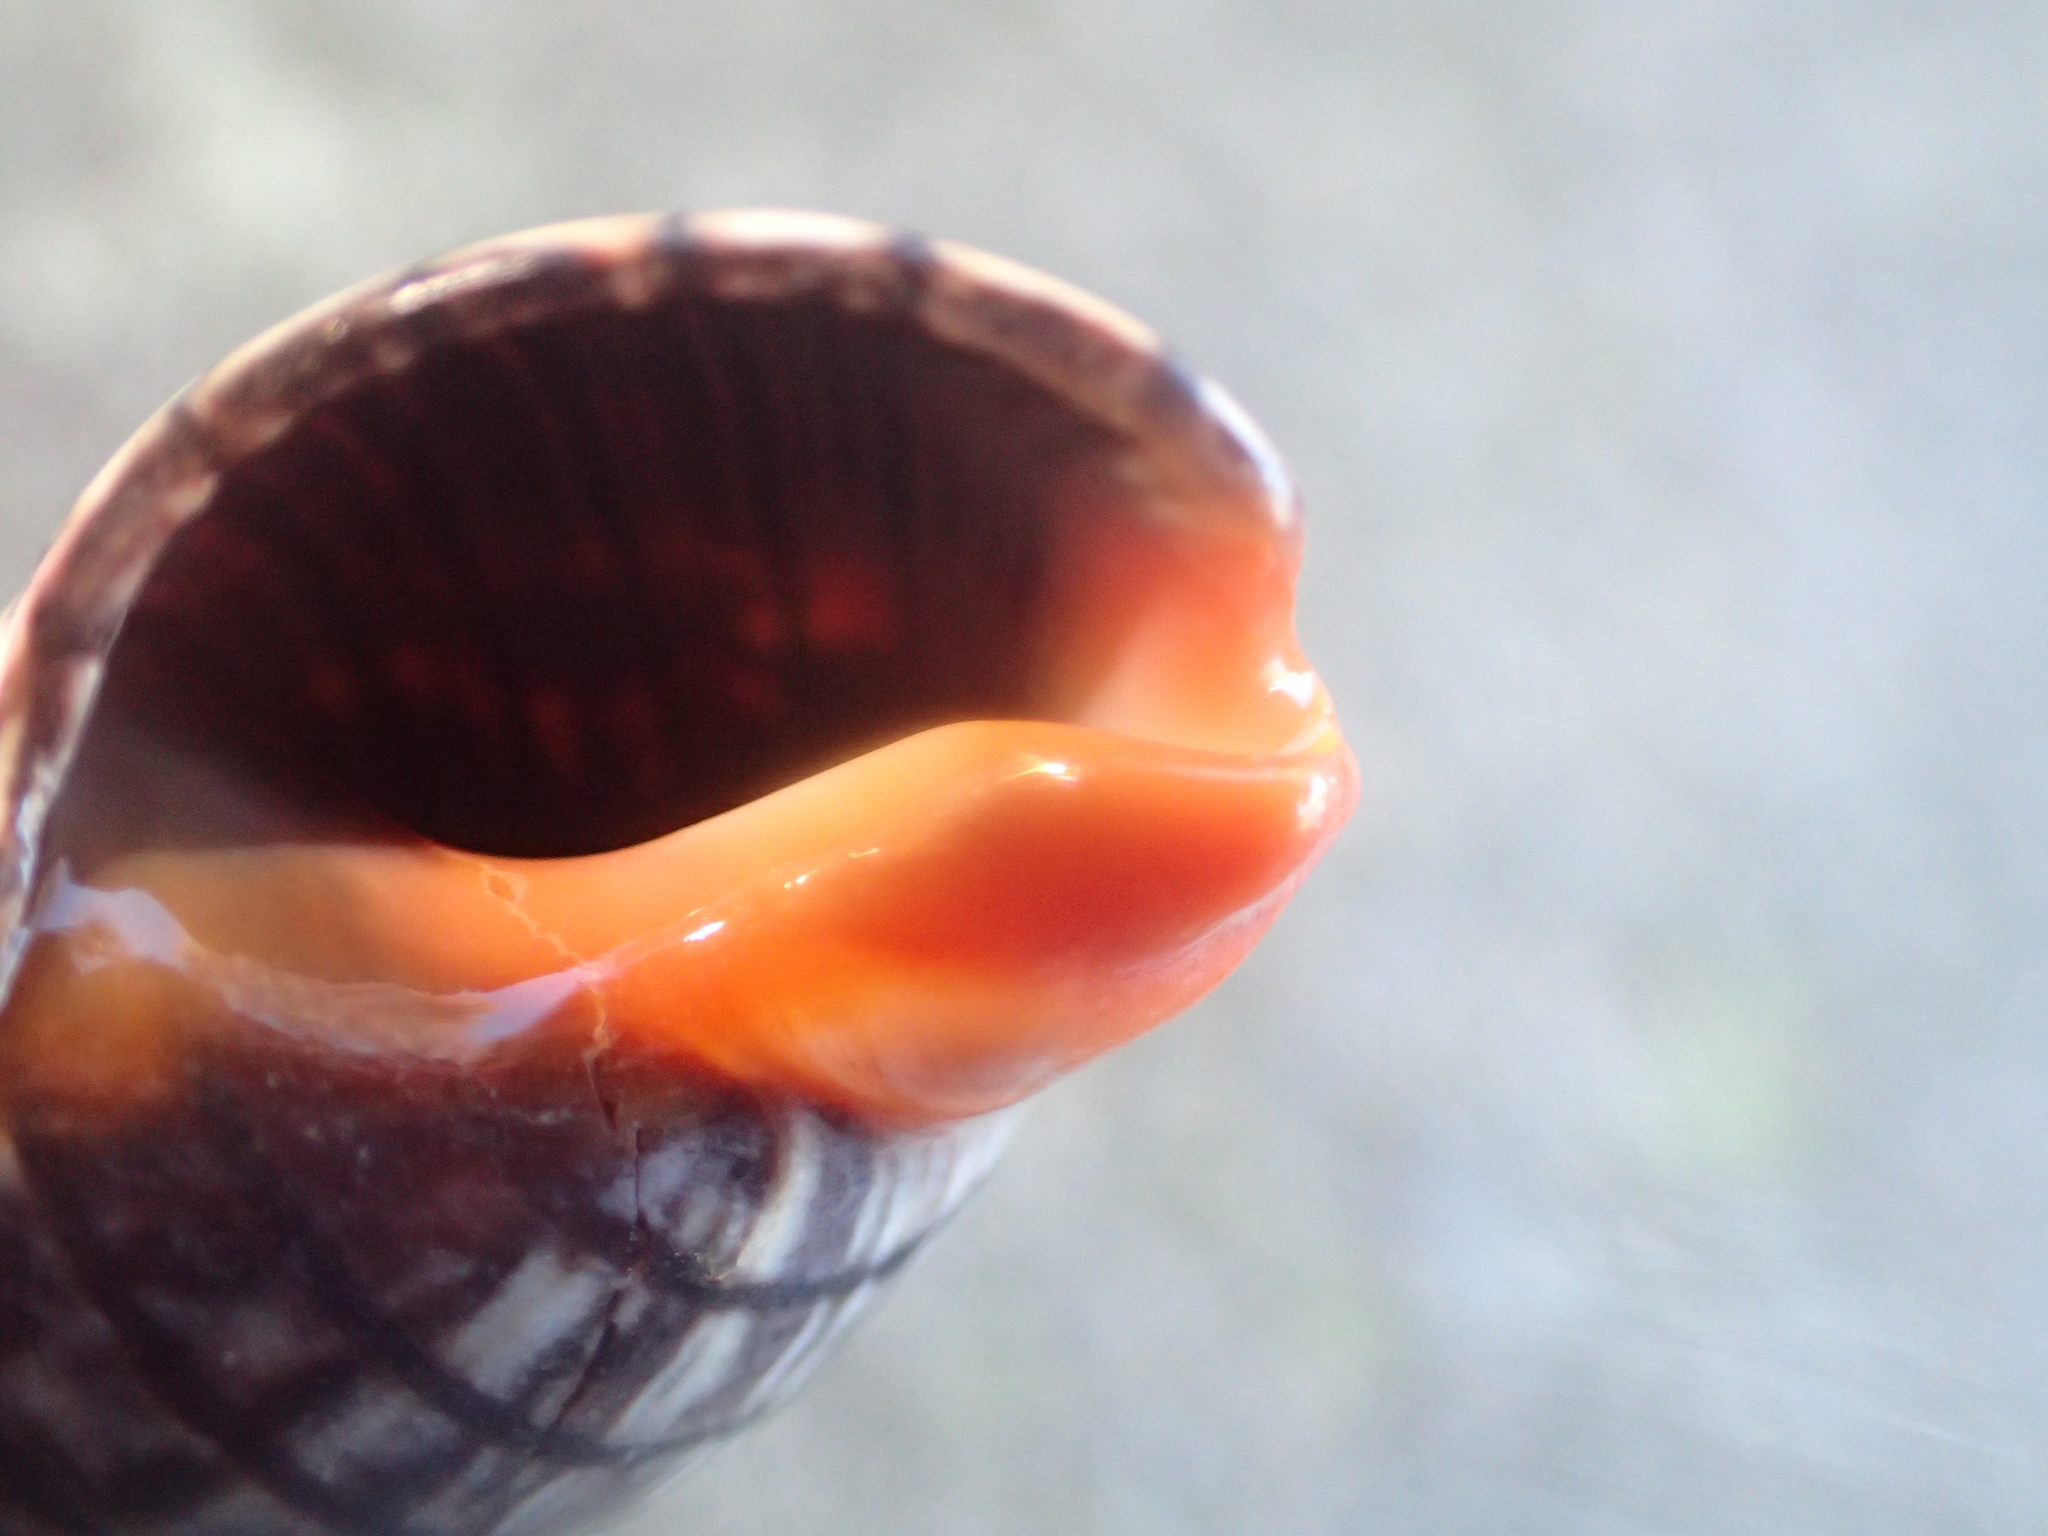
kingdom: Animalia
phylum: Mollusca
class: Gastropoda
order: Neogastropoda
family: Cominellidae
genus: Cominella
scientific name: Cominella virgata
